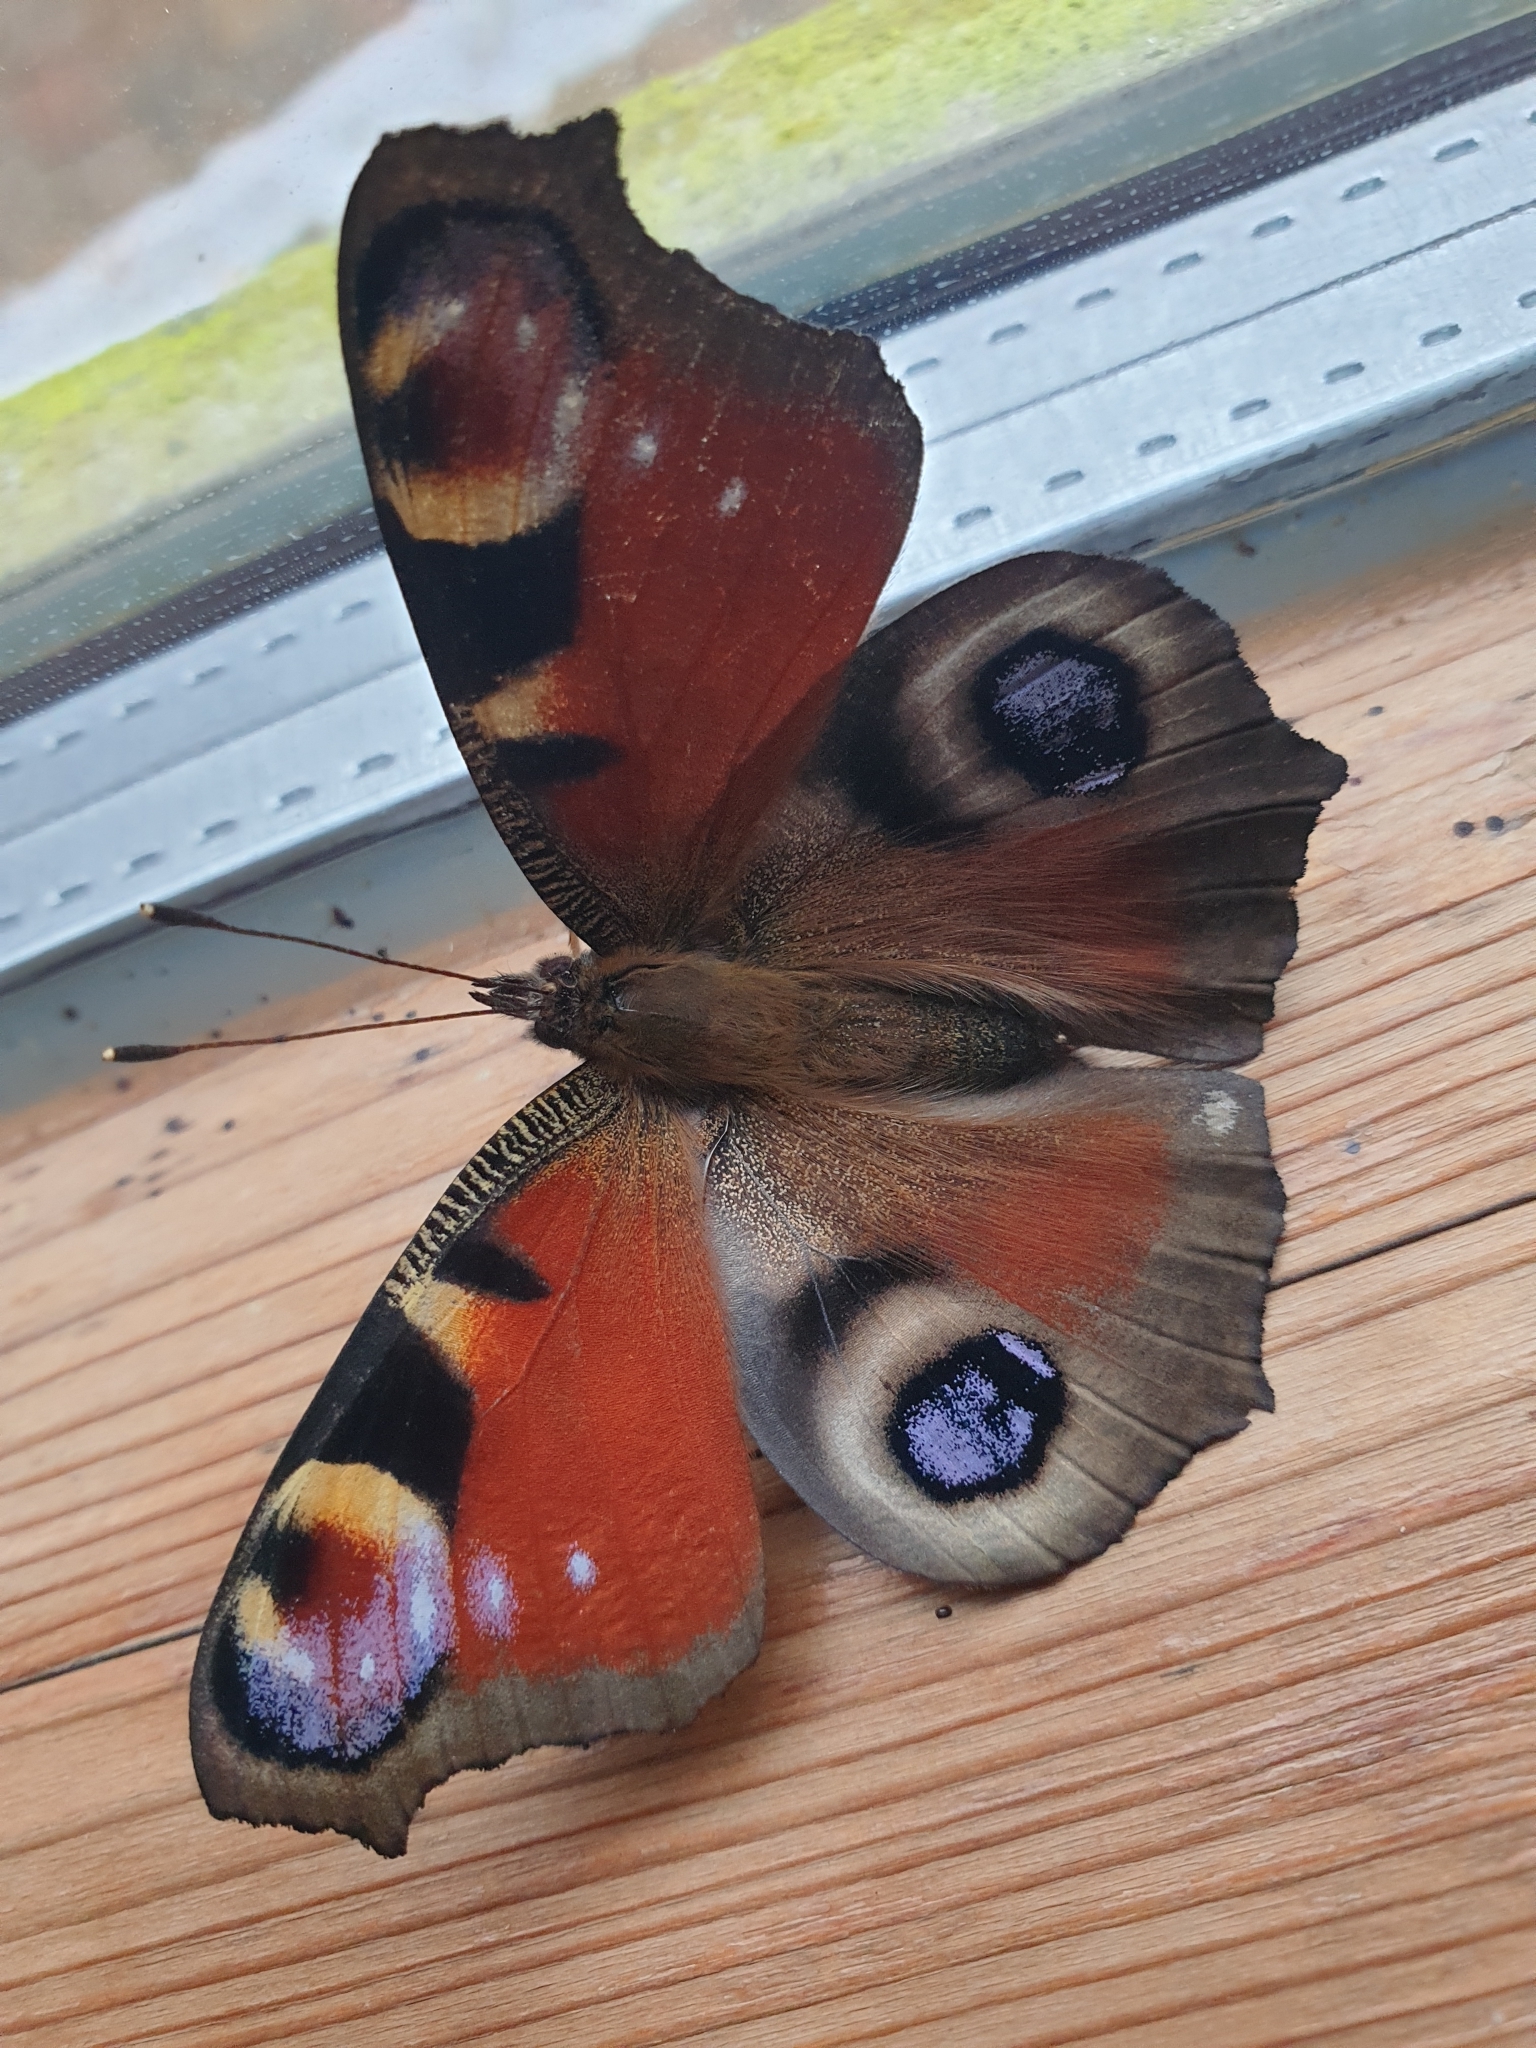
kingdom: Animalia
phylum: Arthropoda
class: Insecta
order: Lepidoptera
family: Nymphalidae
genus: Aglais
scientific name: Aglais io
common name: Peacock
